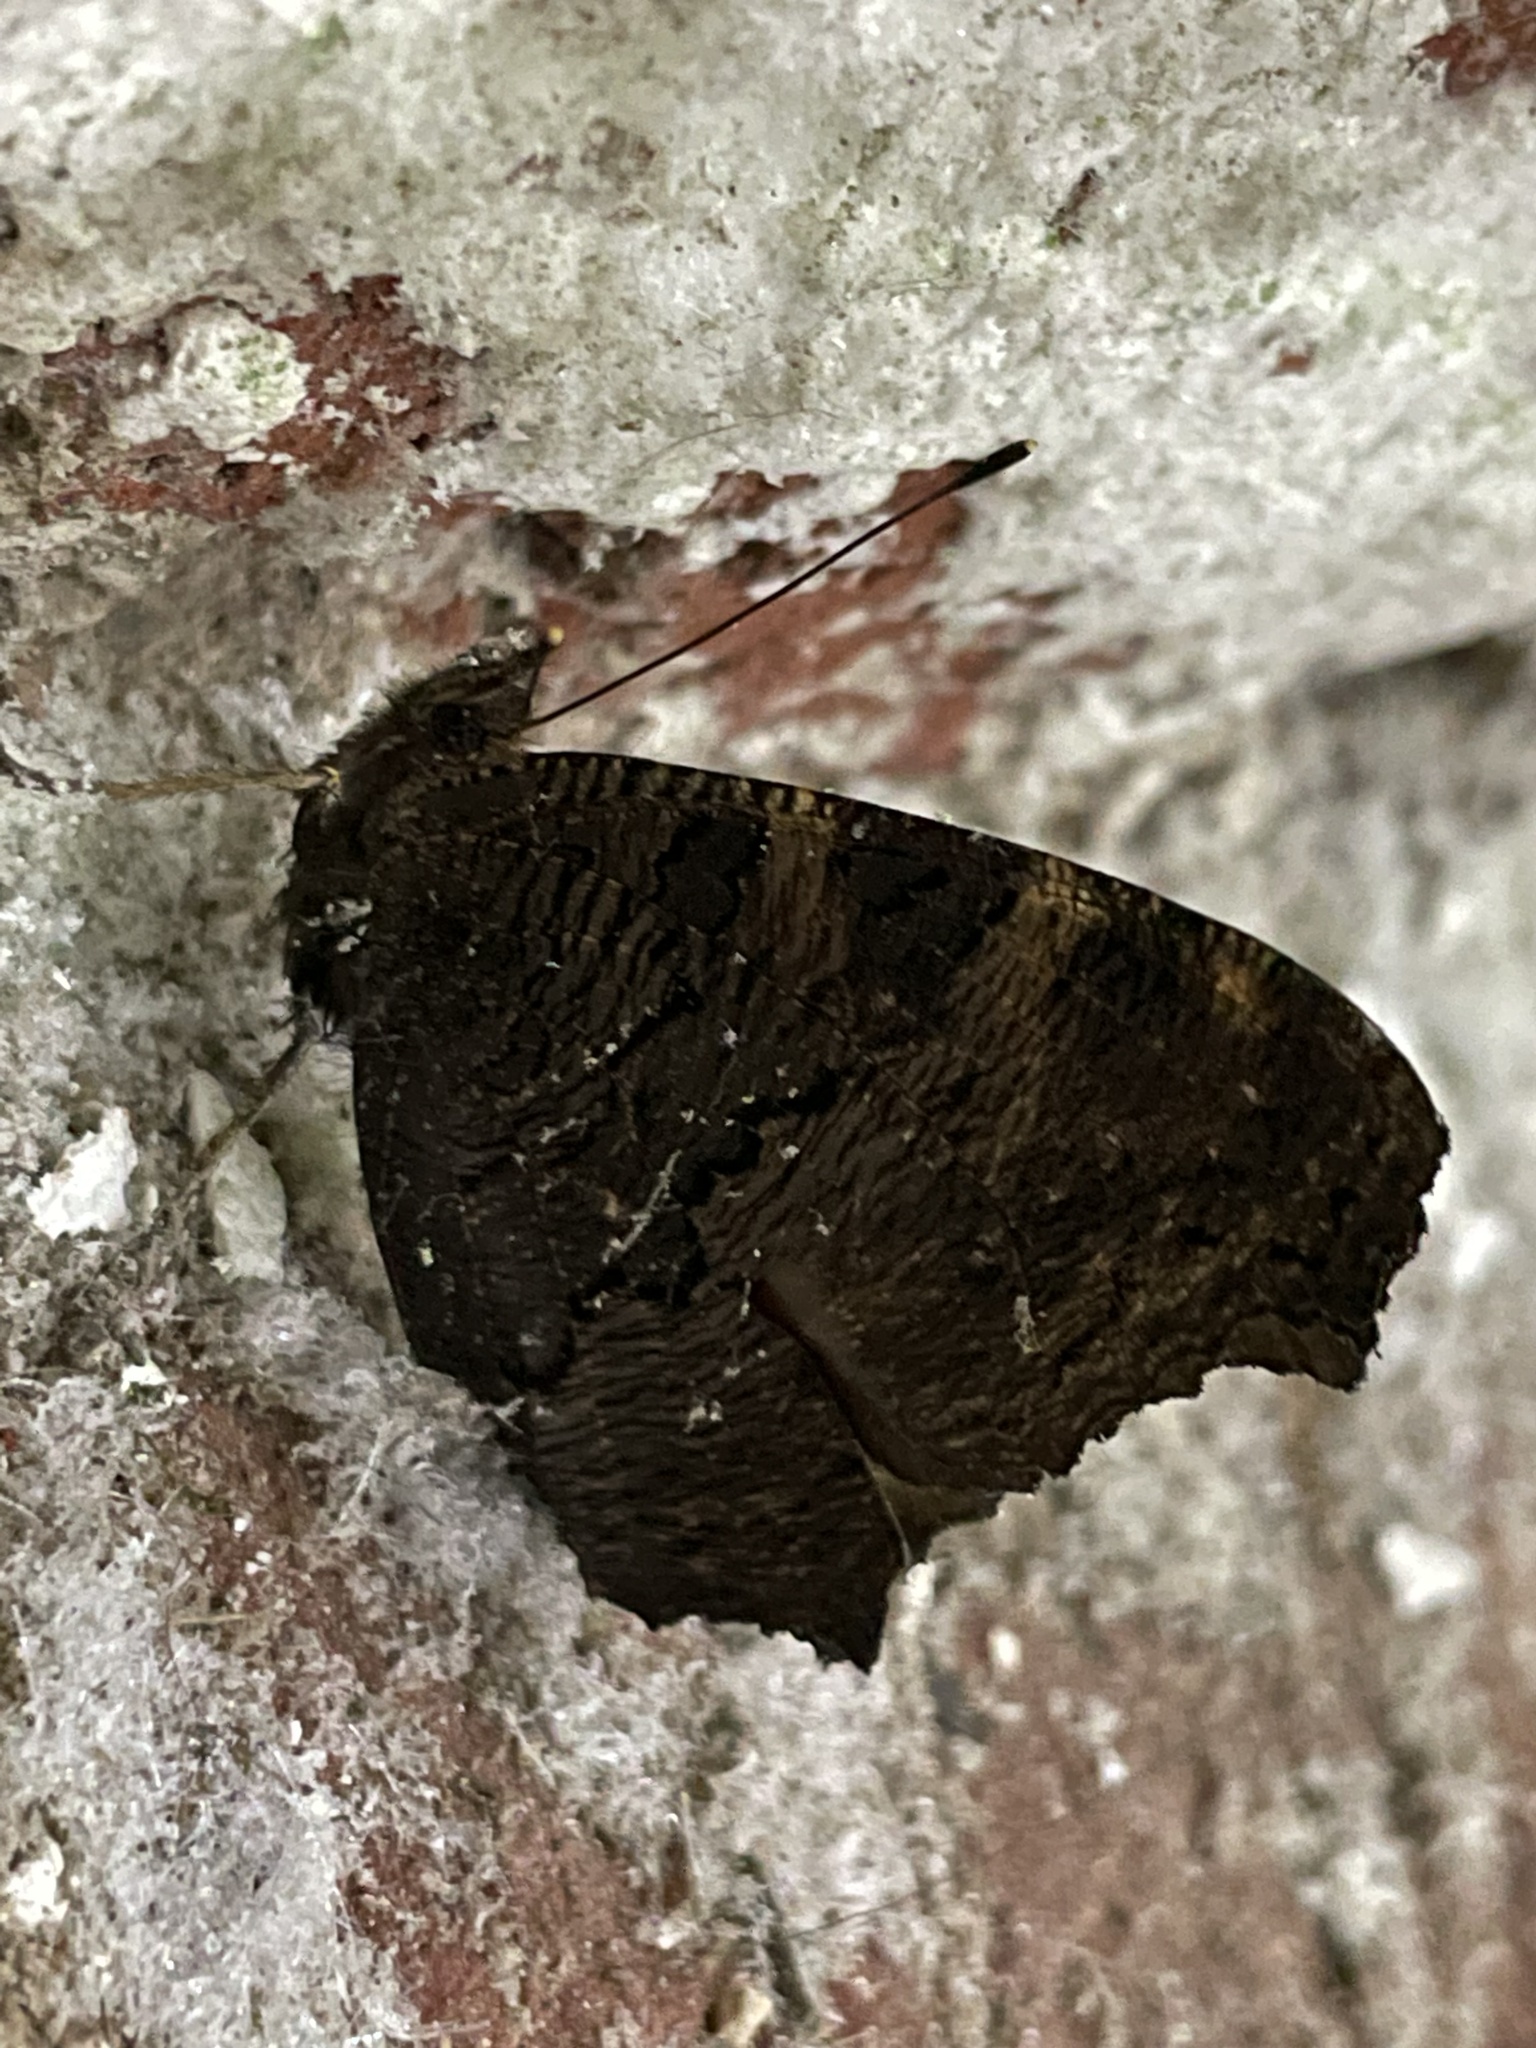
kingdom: Animalia
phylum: Arthropoda
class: Insecta
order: Lepidoptera
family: Nymphalidae
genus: Aglais
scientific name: Aglais io
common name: Peacock
